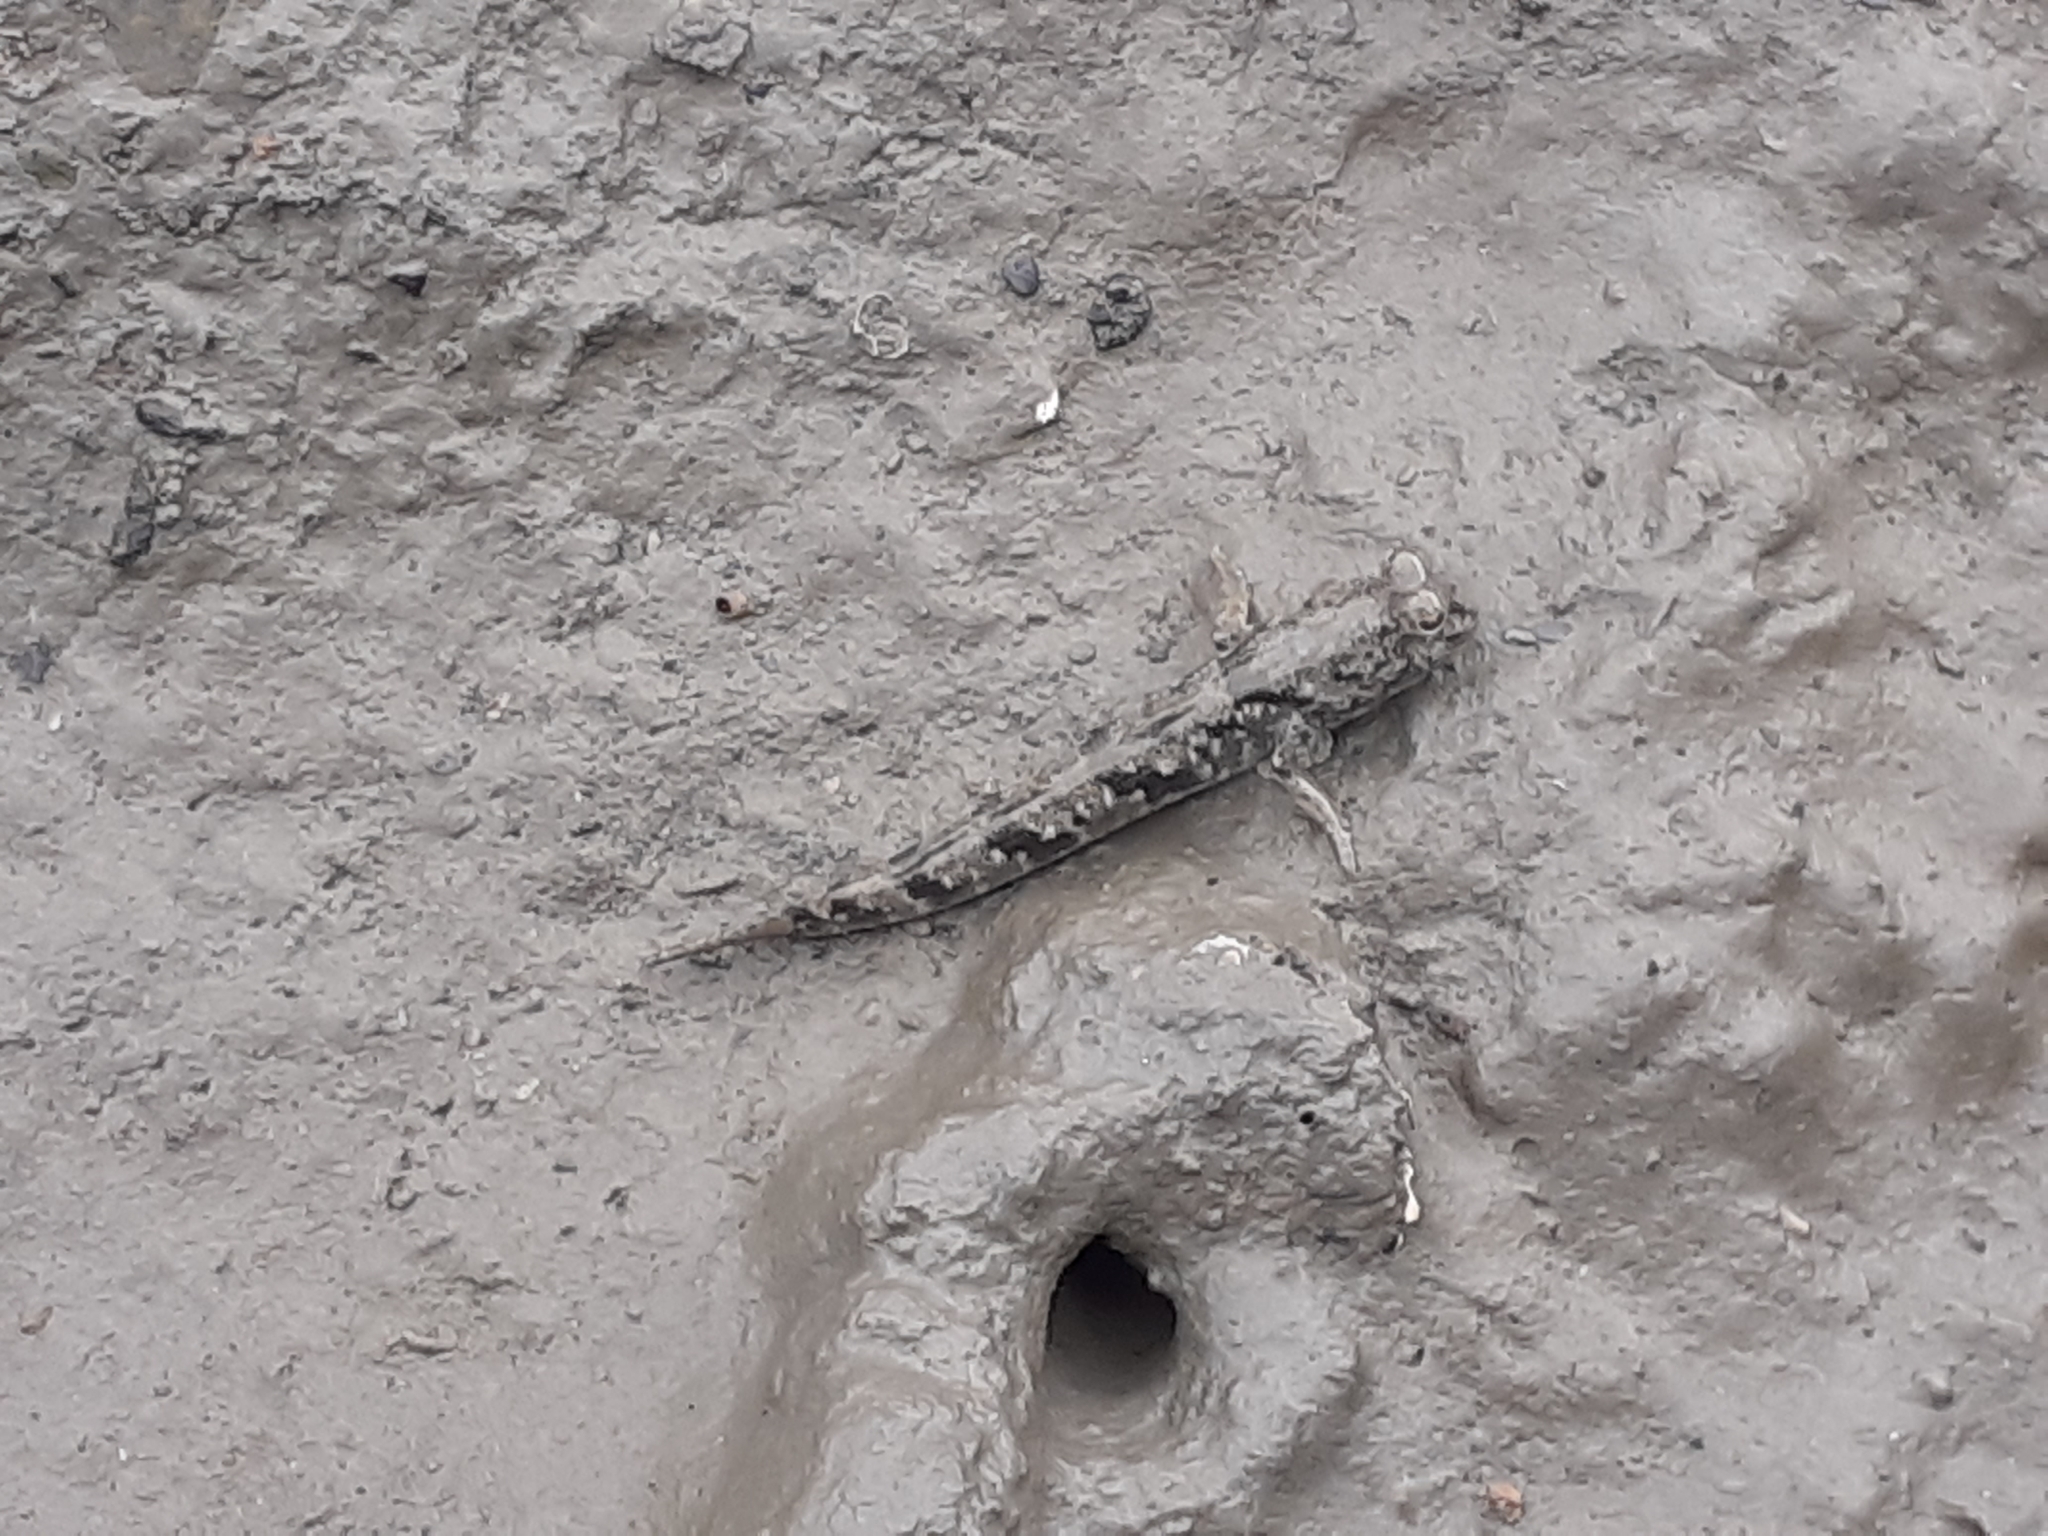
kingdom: Animalia
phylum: Chordata
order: Perciformes
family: Gobiidae
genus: Periophthalmus
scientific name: Periophthalmus modestus
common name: Black goby
